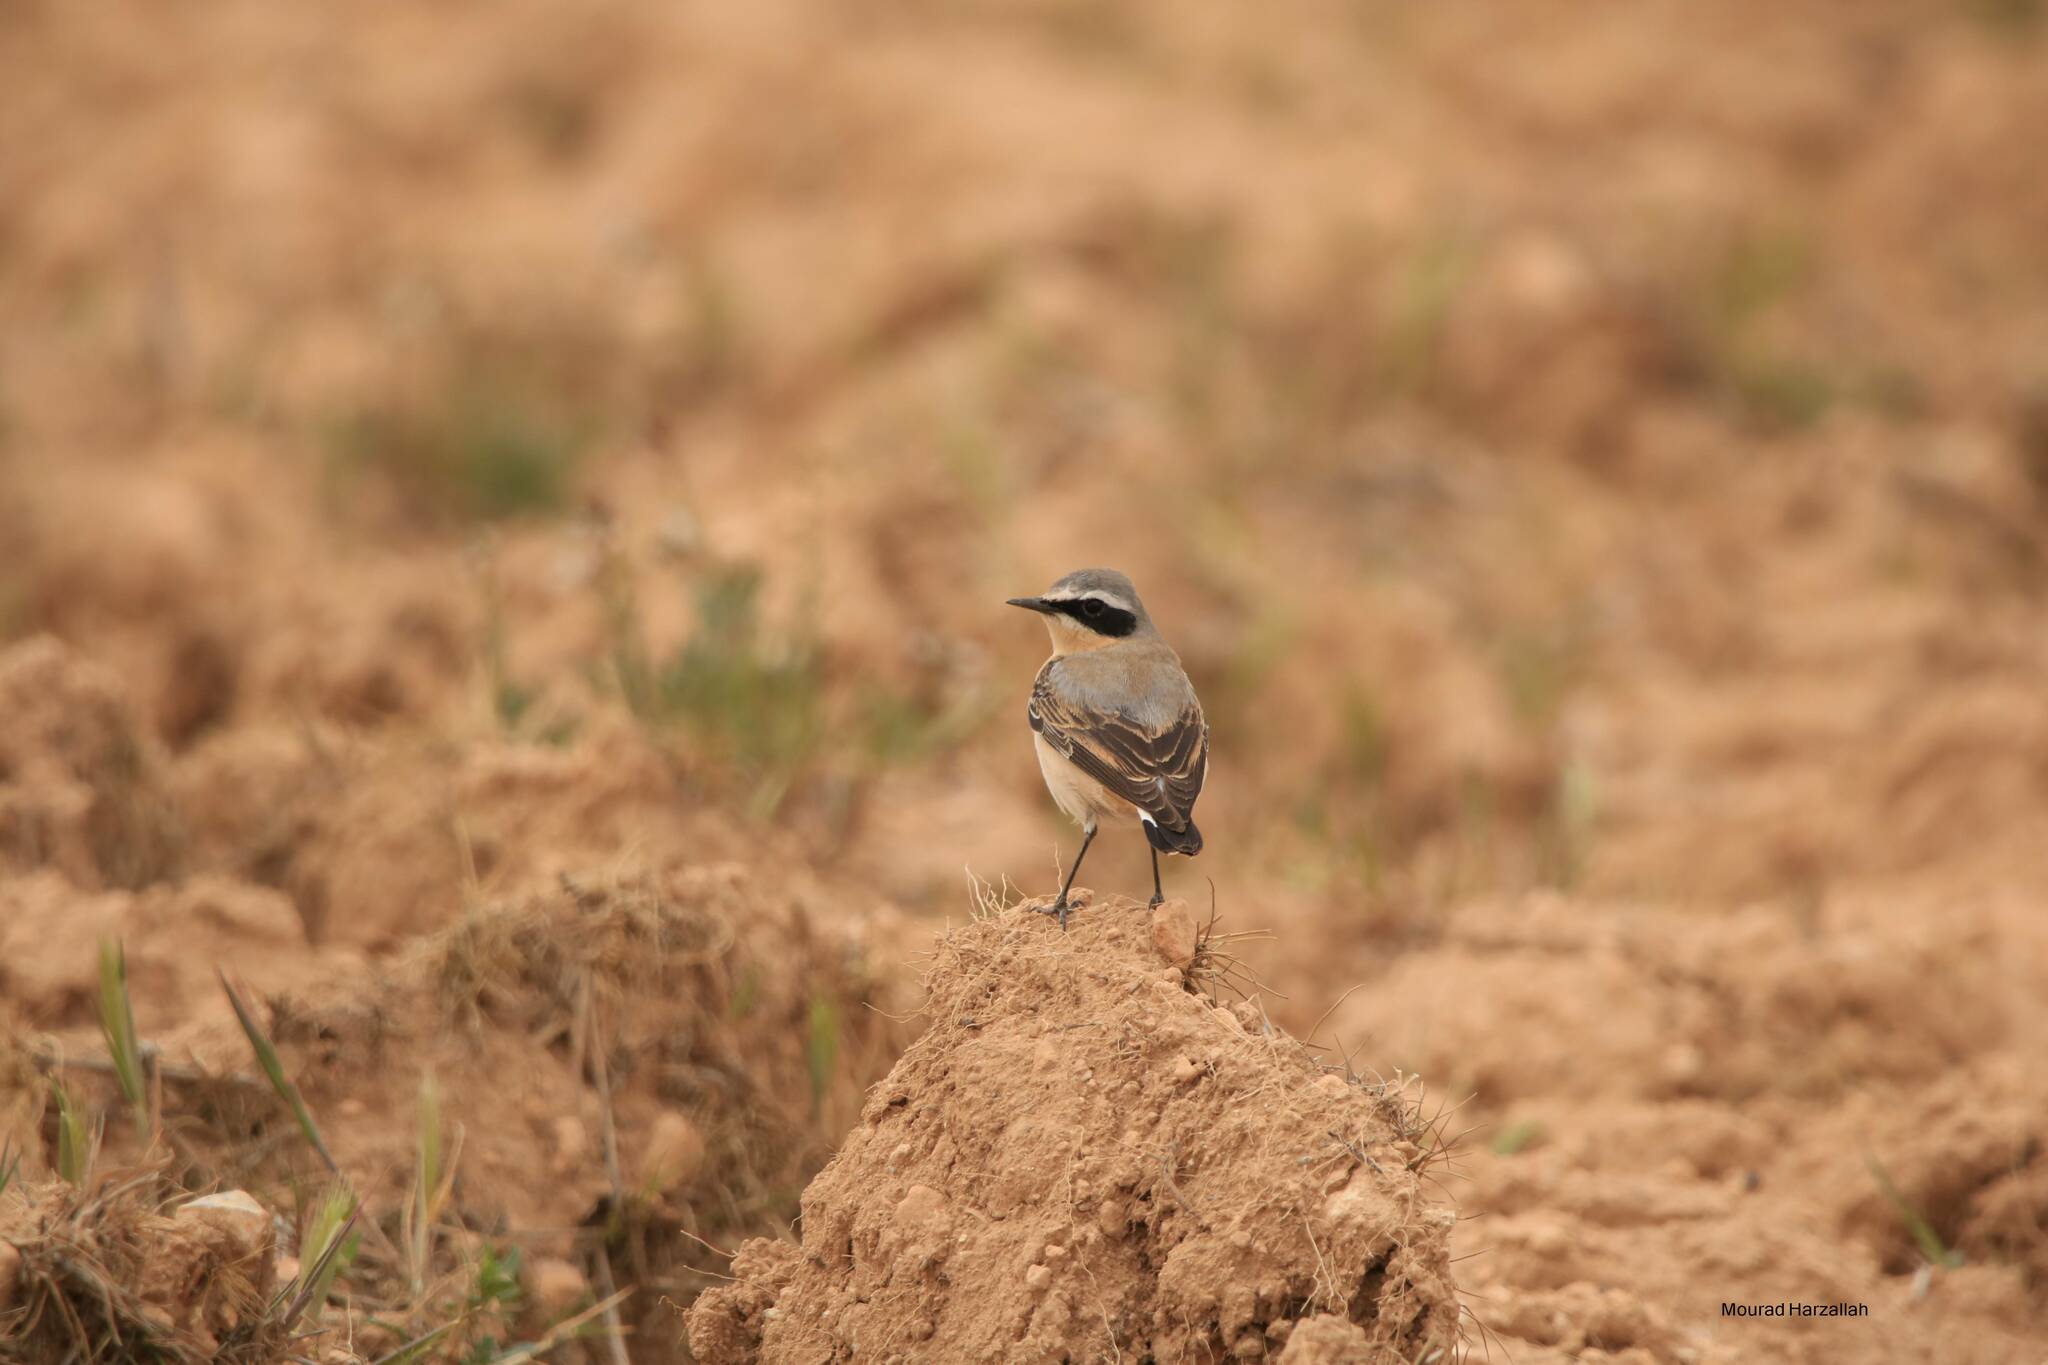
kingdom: Animalia
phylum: Chordata
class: Aves
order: Passeriformes
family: Muscicapidae
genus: Oenanthe
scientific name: Oenanthe oenanthe
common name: Northern wheatear
